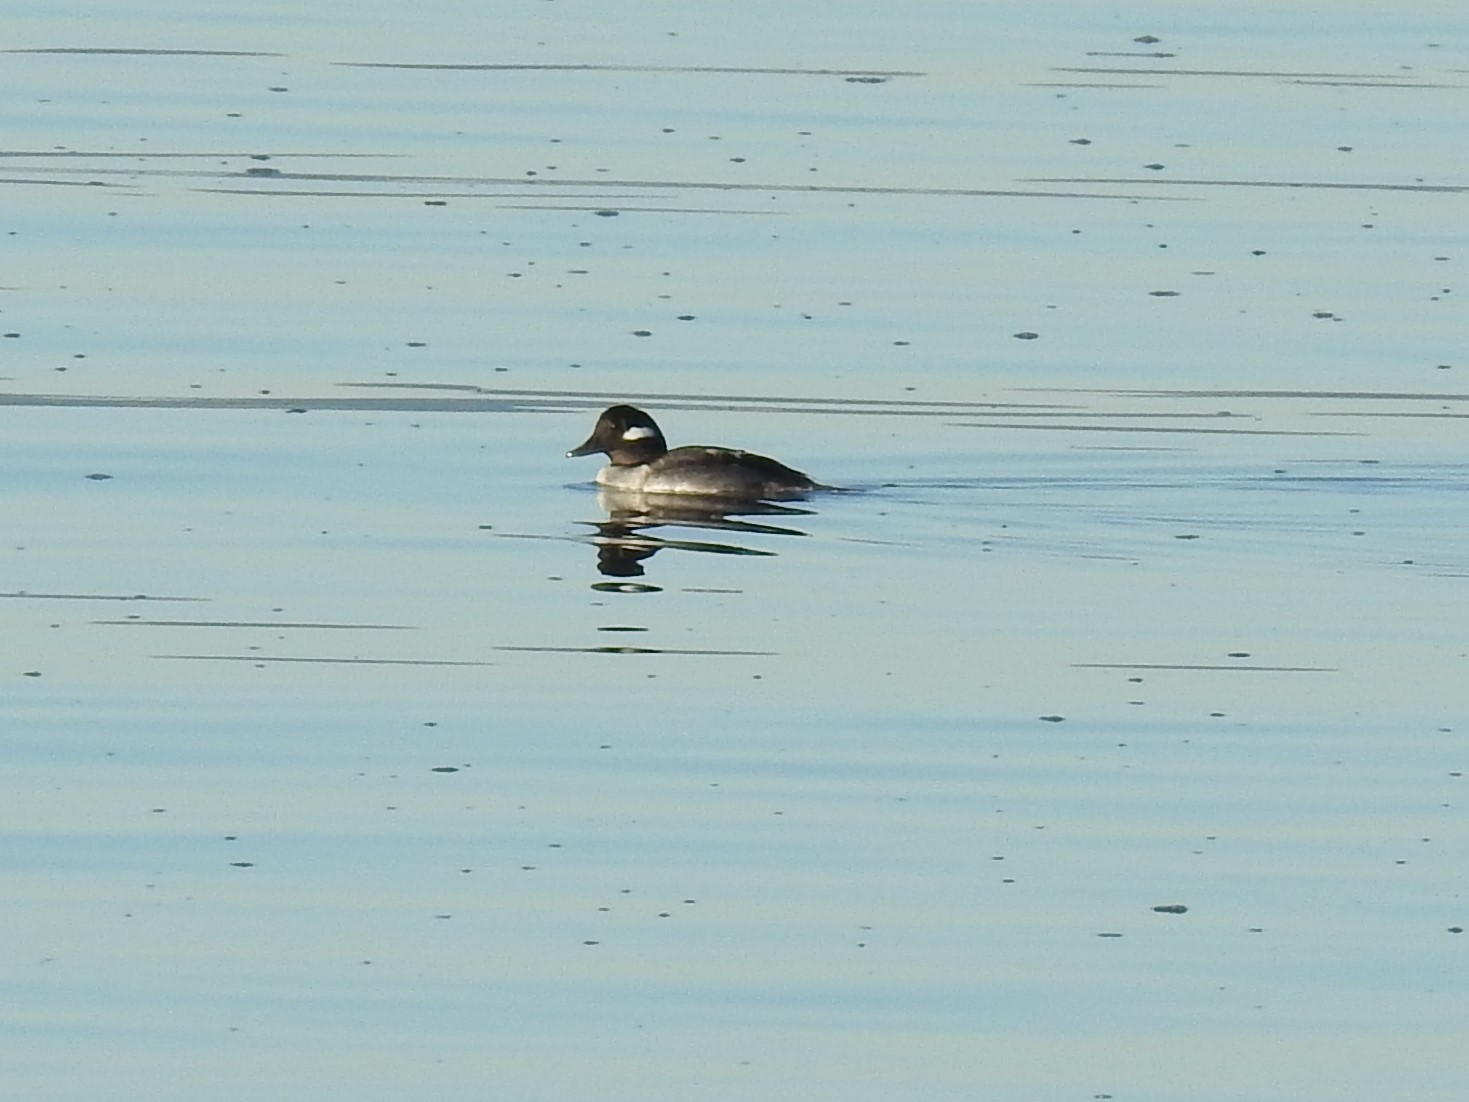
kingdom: Animalia
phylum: Chordata
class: Aves
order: Anseriformes
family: Anatidae
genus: Bucephala
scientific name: Bucephala albeola
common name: Bufflehead
